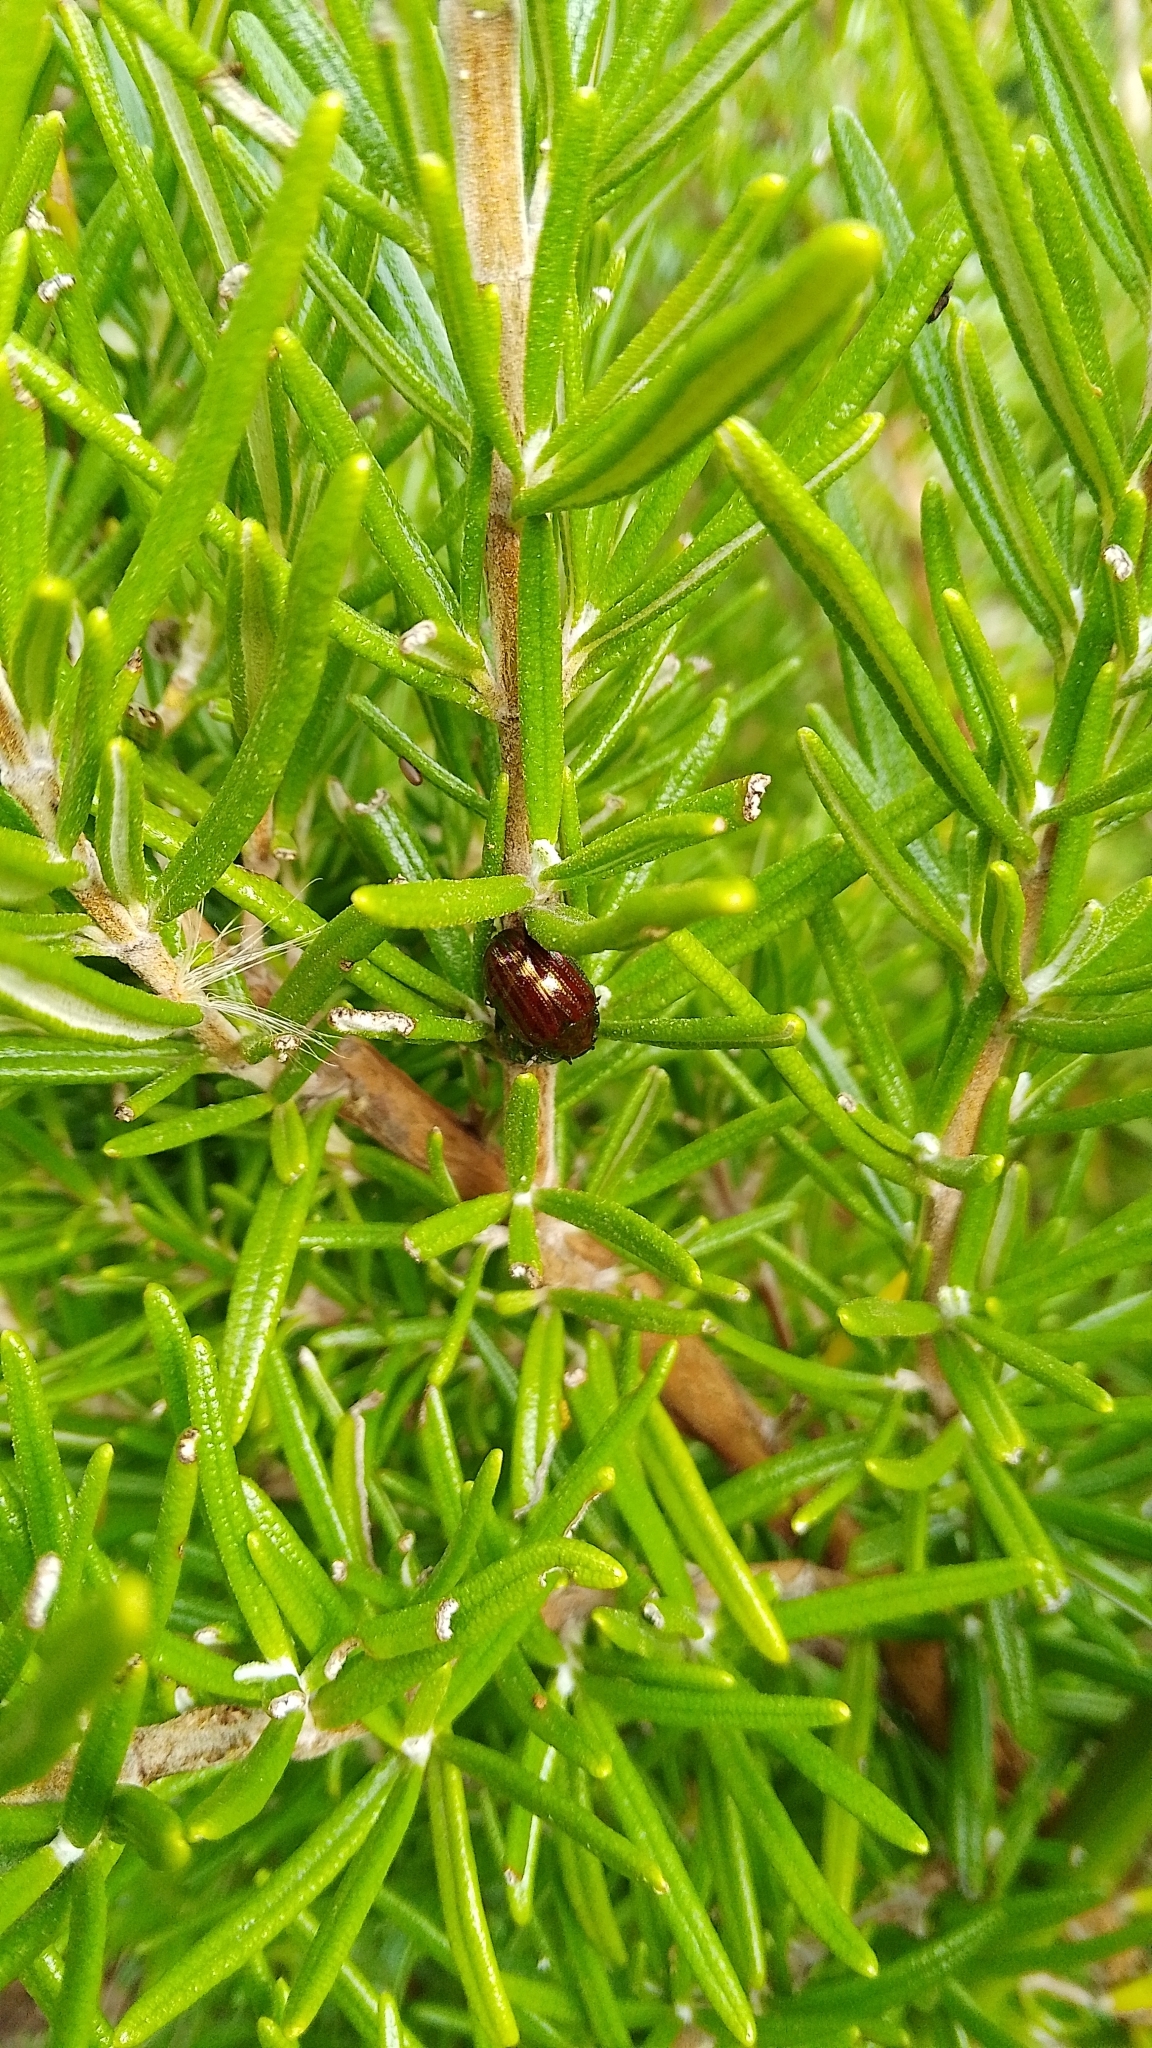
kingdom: Animalia
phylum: Arthropoda
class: Insecta
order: Coleoptera
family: Chrysomelidae
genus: Chrysolina
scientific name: Chrysolina americana
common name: Rosemary beetle
